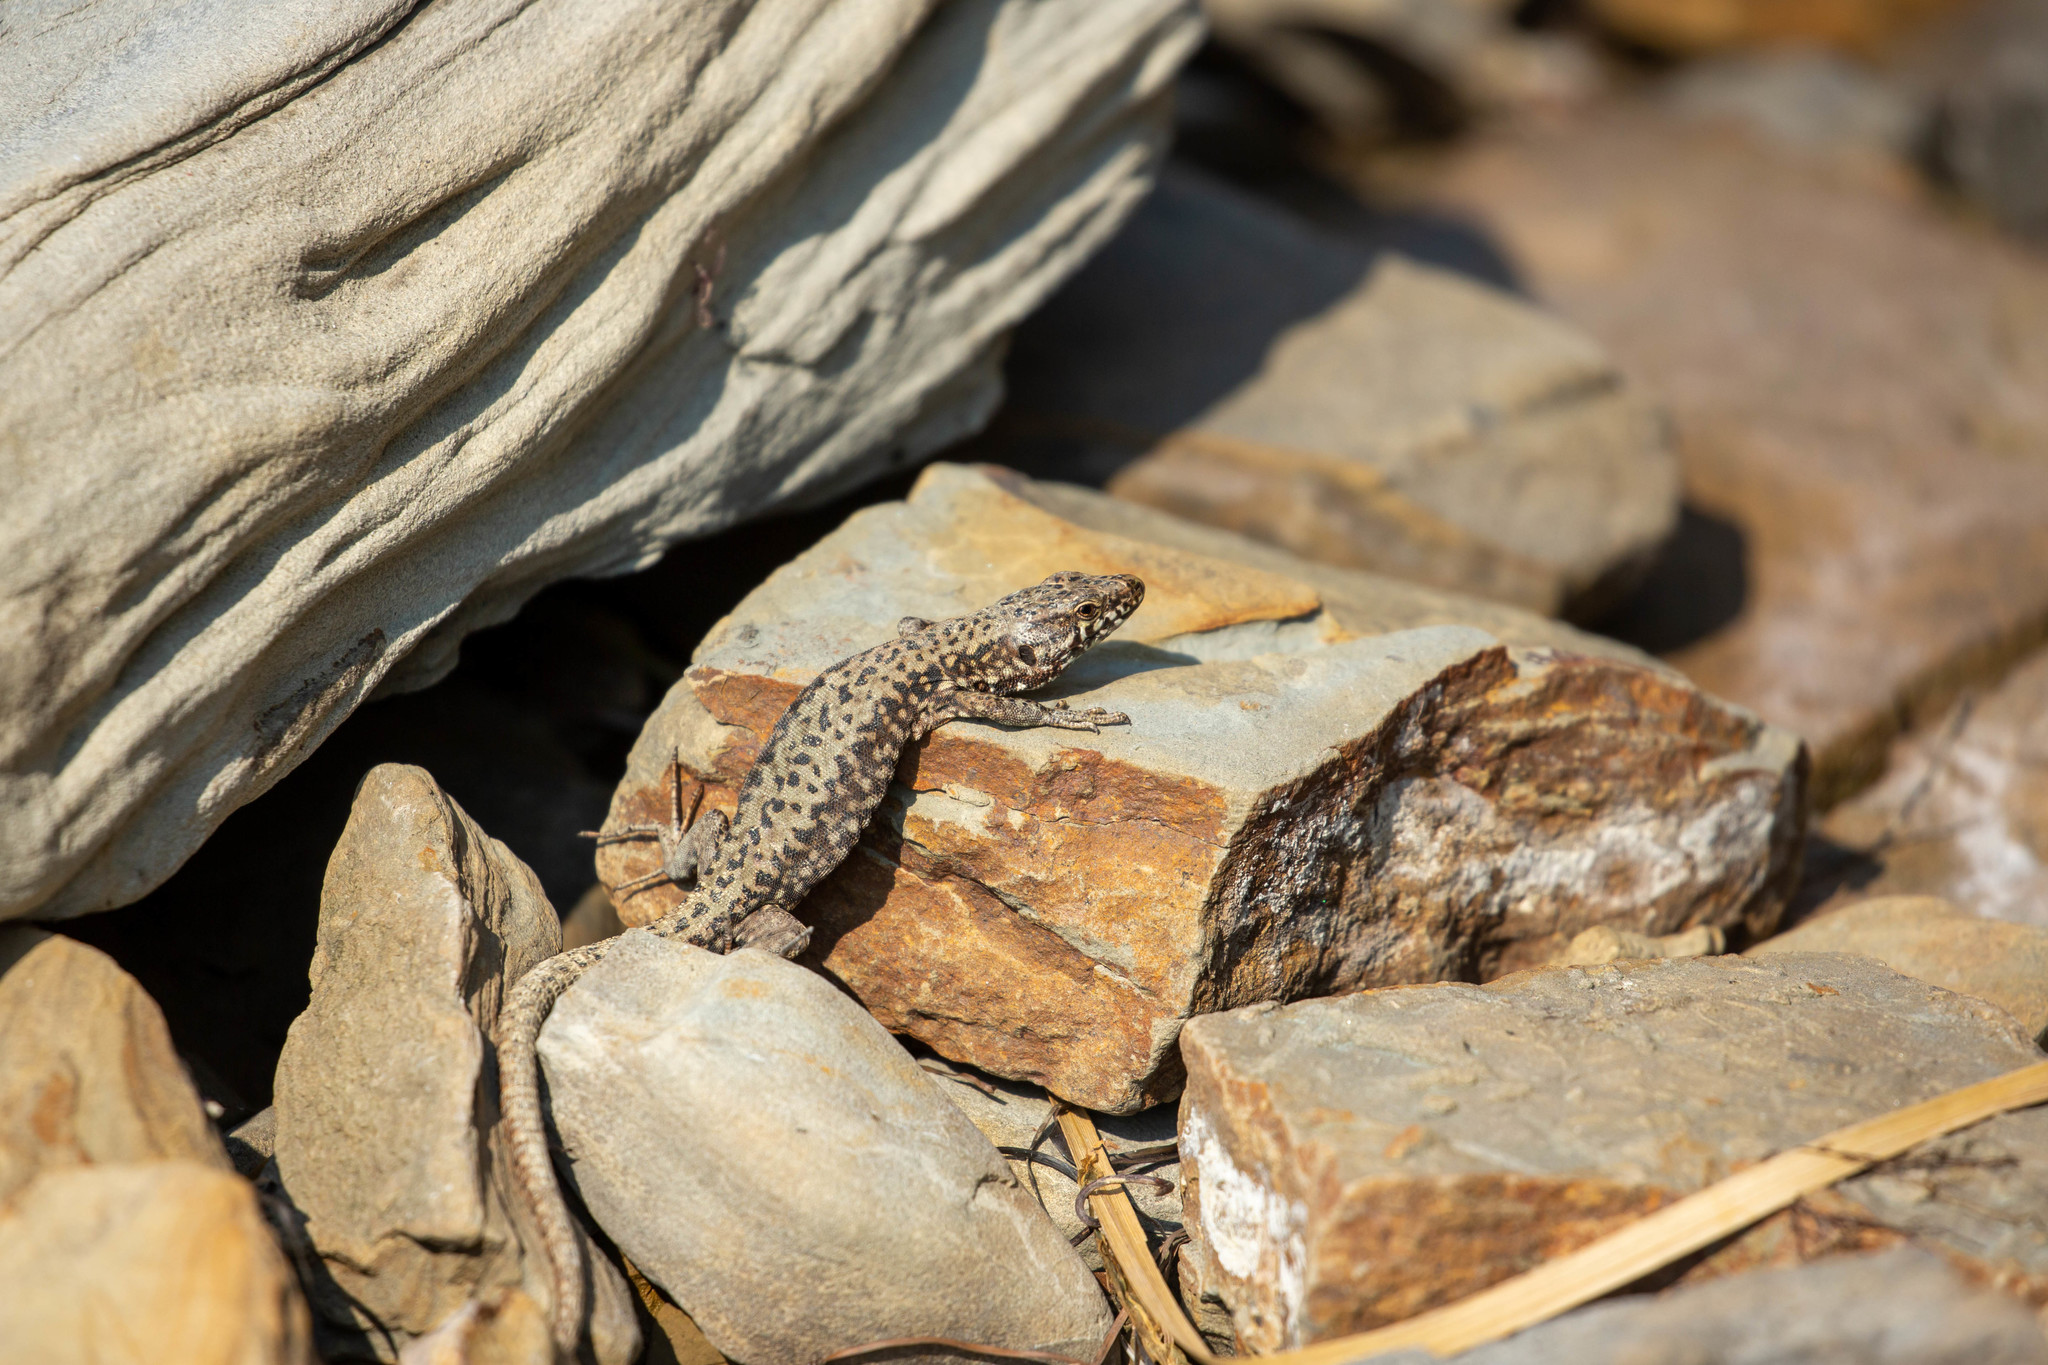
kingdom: Animalia
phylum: Chordata
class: Squamata
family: Lacertidae
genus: Podarcis
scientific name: Podarcis muralis
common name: Common wall lizard
